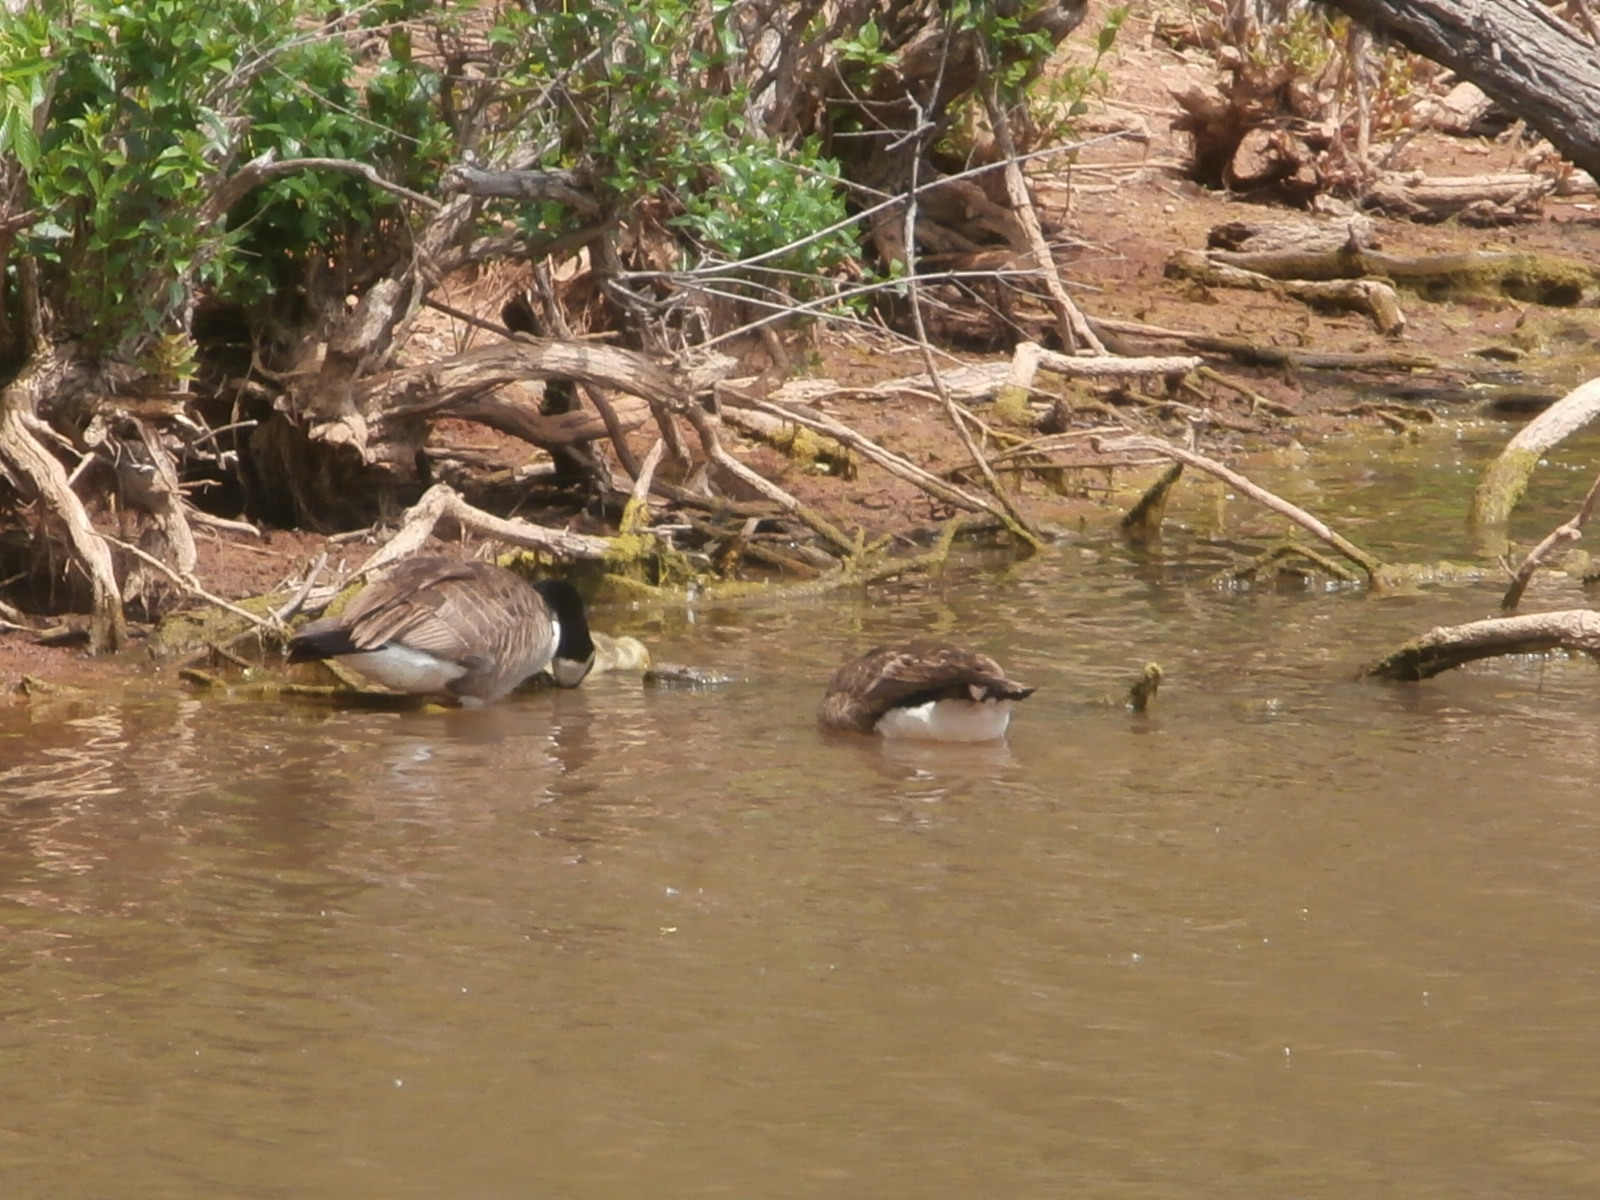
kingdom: Animalia
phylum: Chordata
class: Aves
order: Anseriformes
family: Anatidae
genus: Branta
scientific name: Branta canadensis
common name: Canada goose
